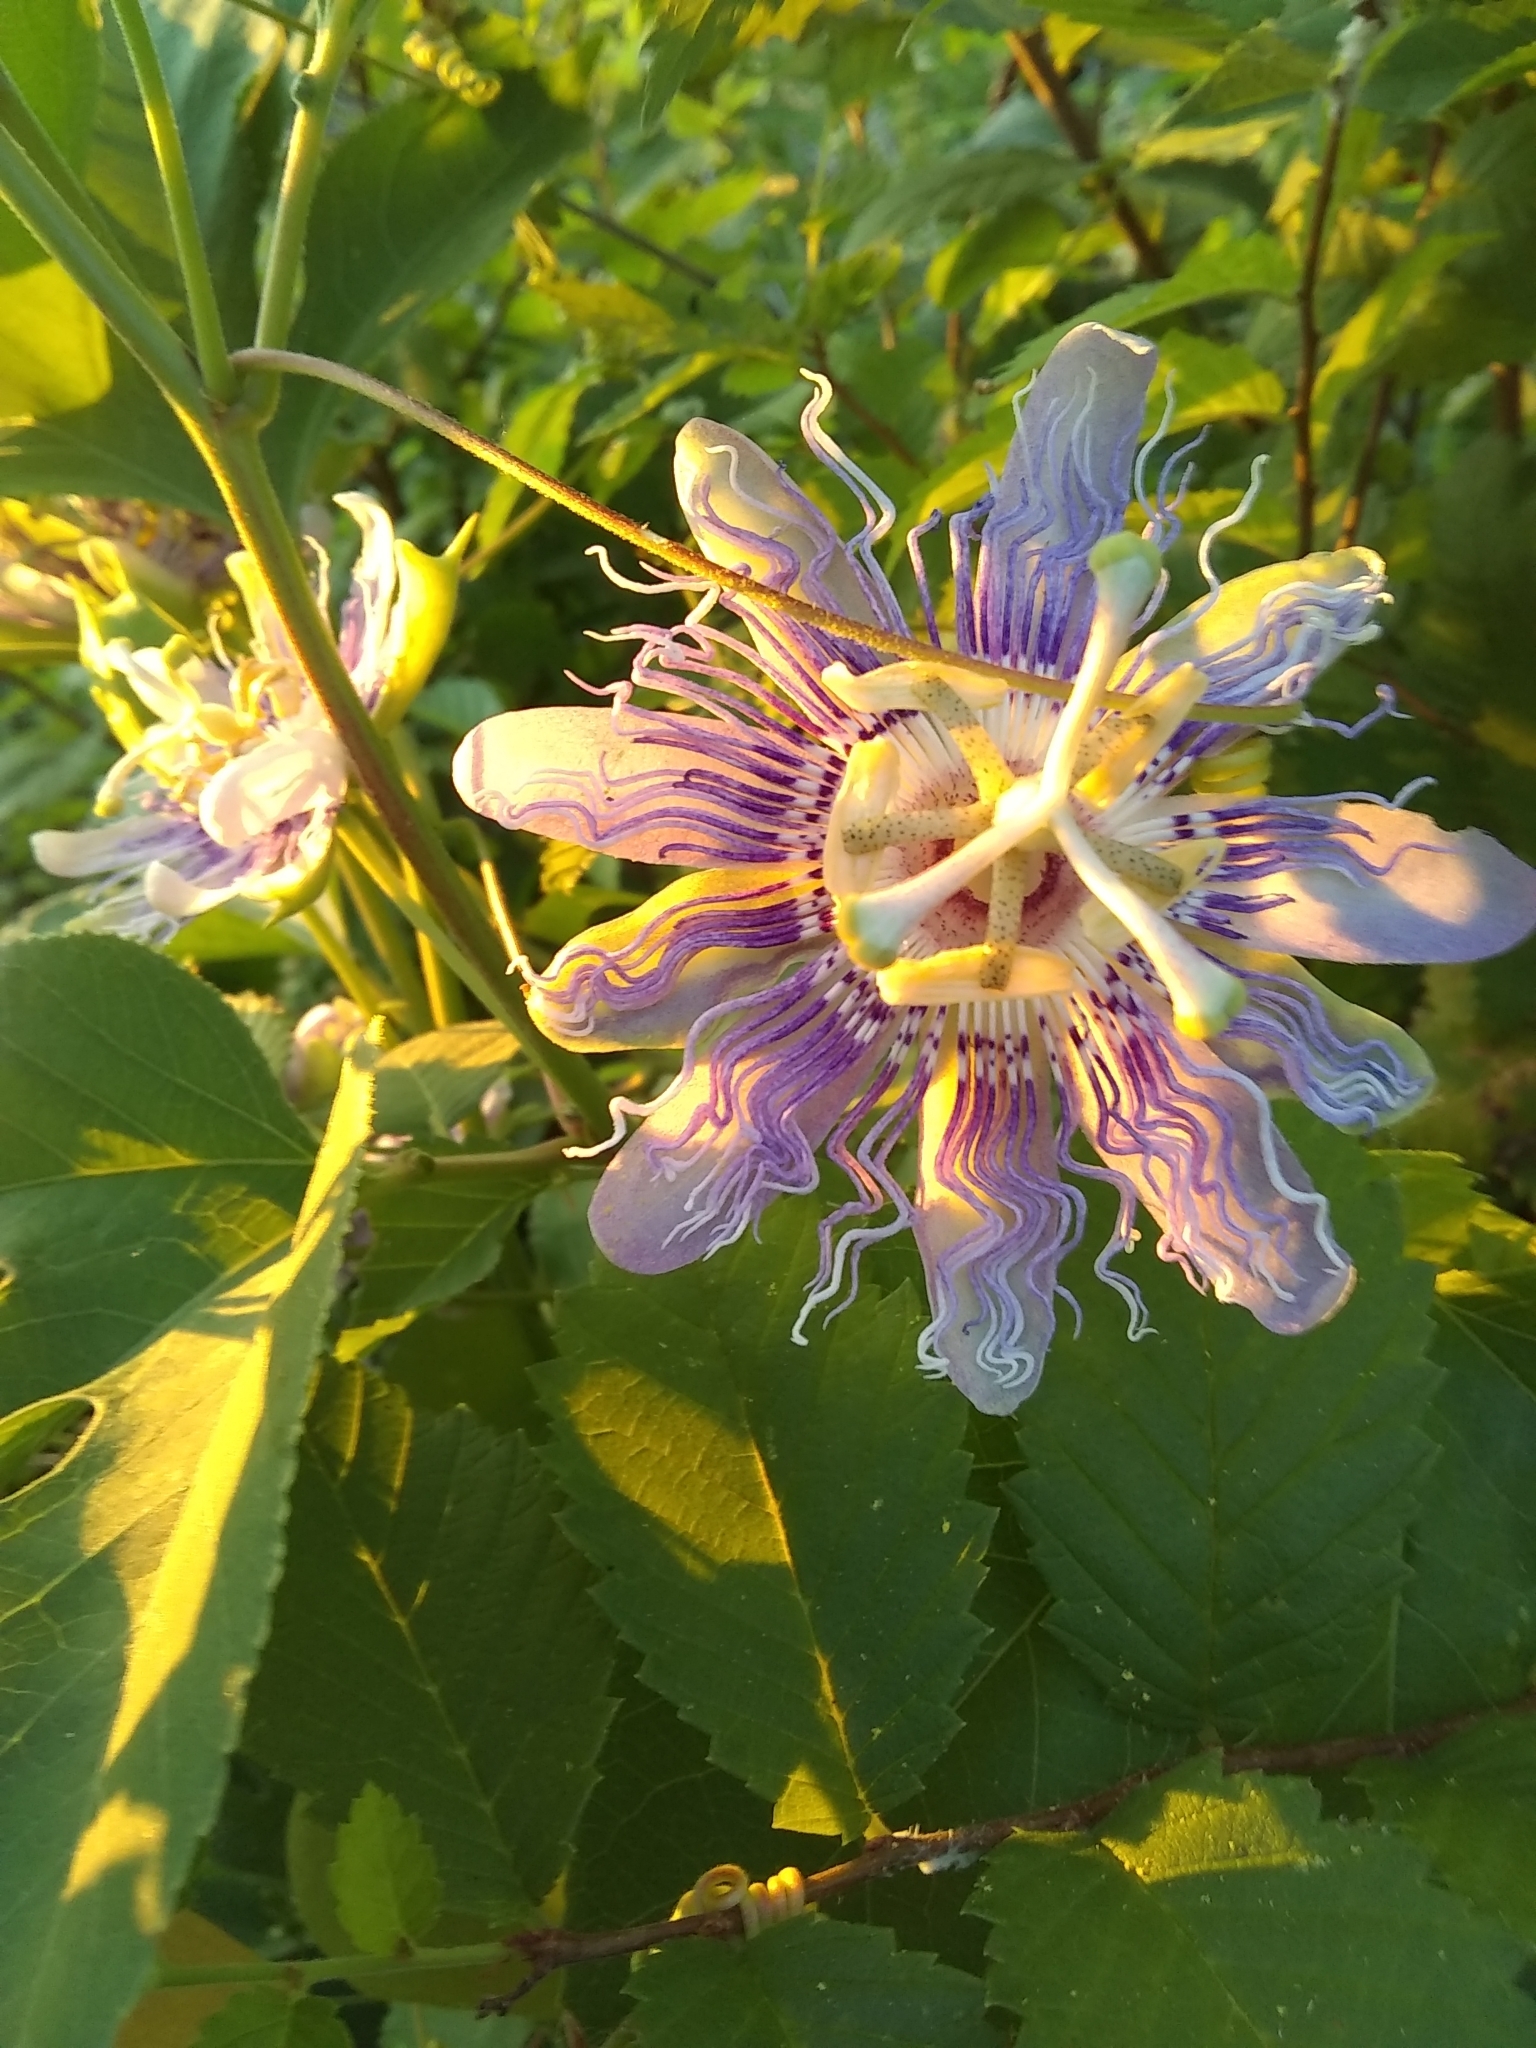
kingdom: Plantae
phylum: Tracheophyta
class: Magnoliopsida
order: Malpighiales
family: Passifloraceae
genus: Passiflora
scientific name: Passiflora incarnata
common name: Apricot-vine
